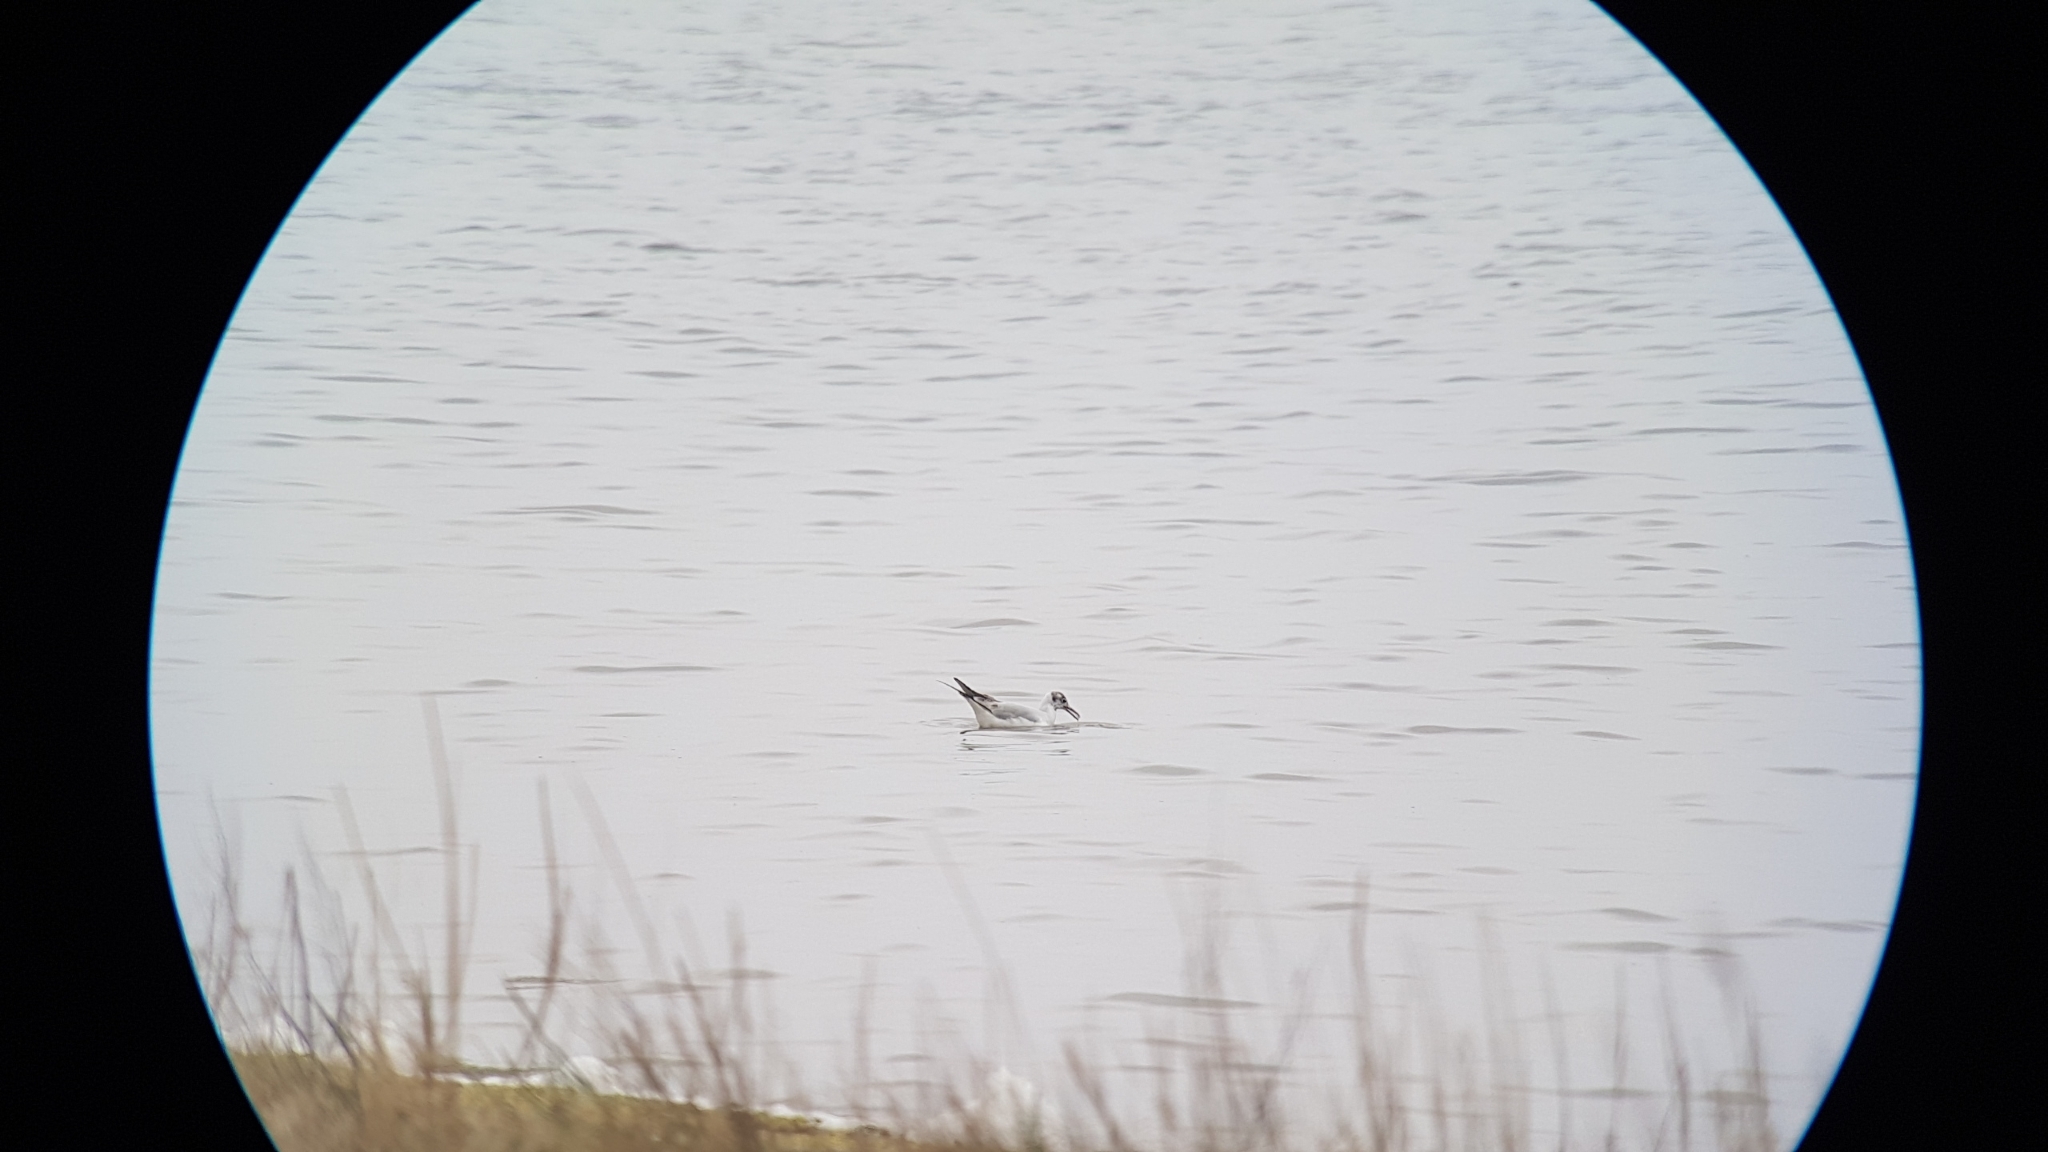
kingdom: Animalia
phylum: Chordata
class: Aves
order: Charadriiformes
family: Laridae
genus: Chroicocephalus
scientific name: Chroicocephalus ridibundus
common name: Black-headed gull
